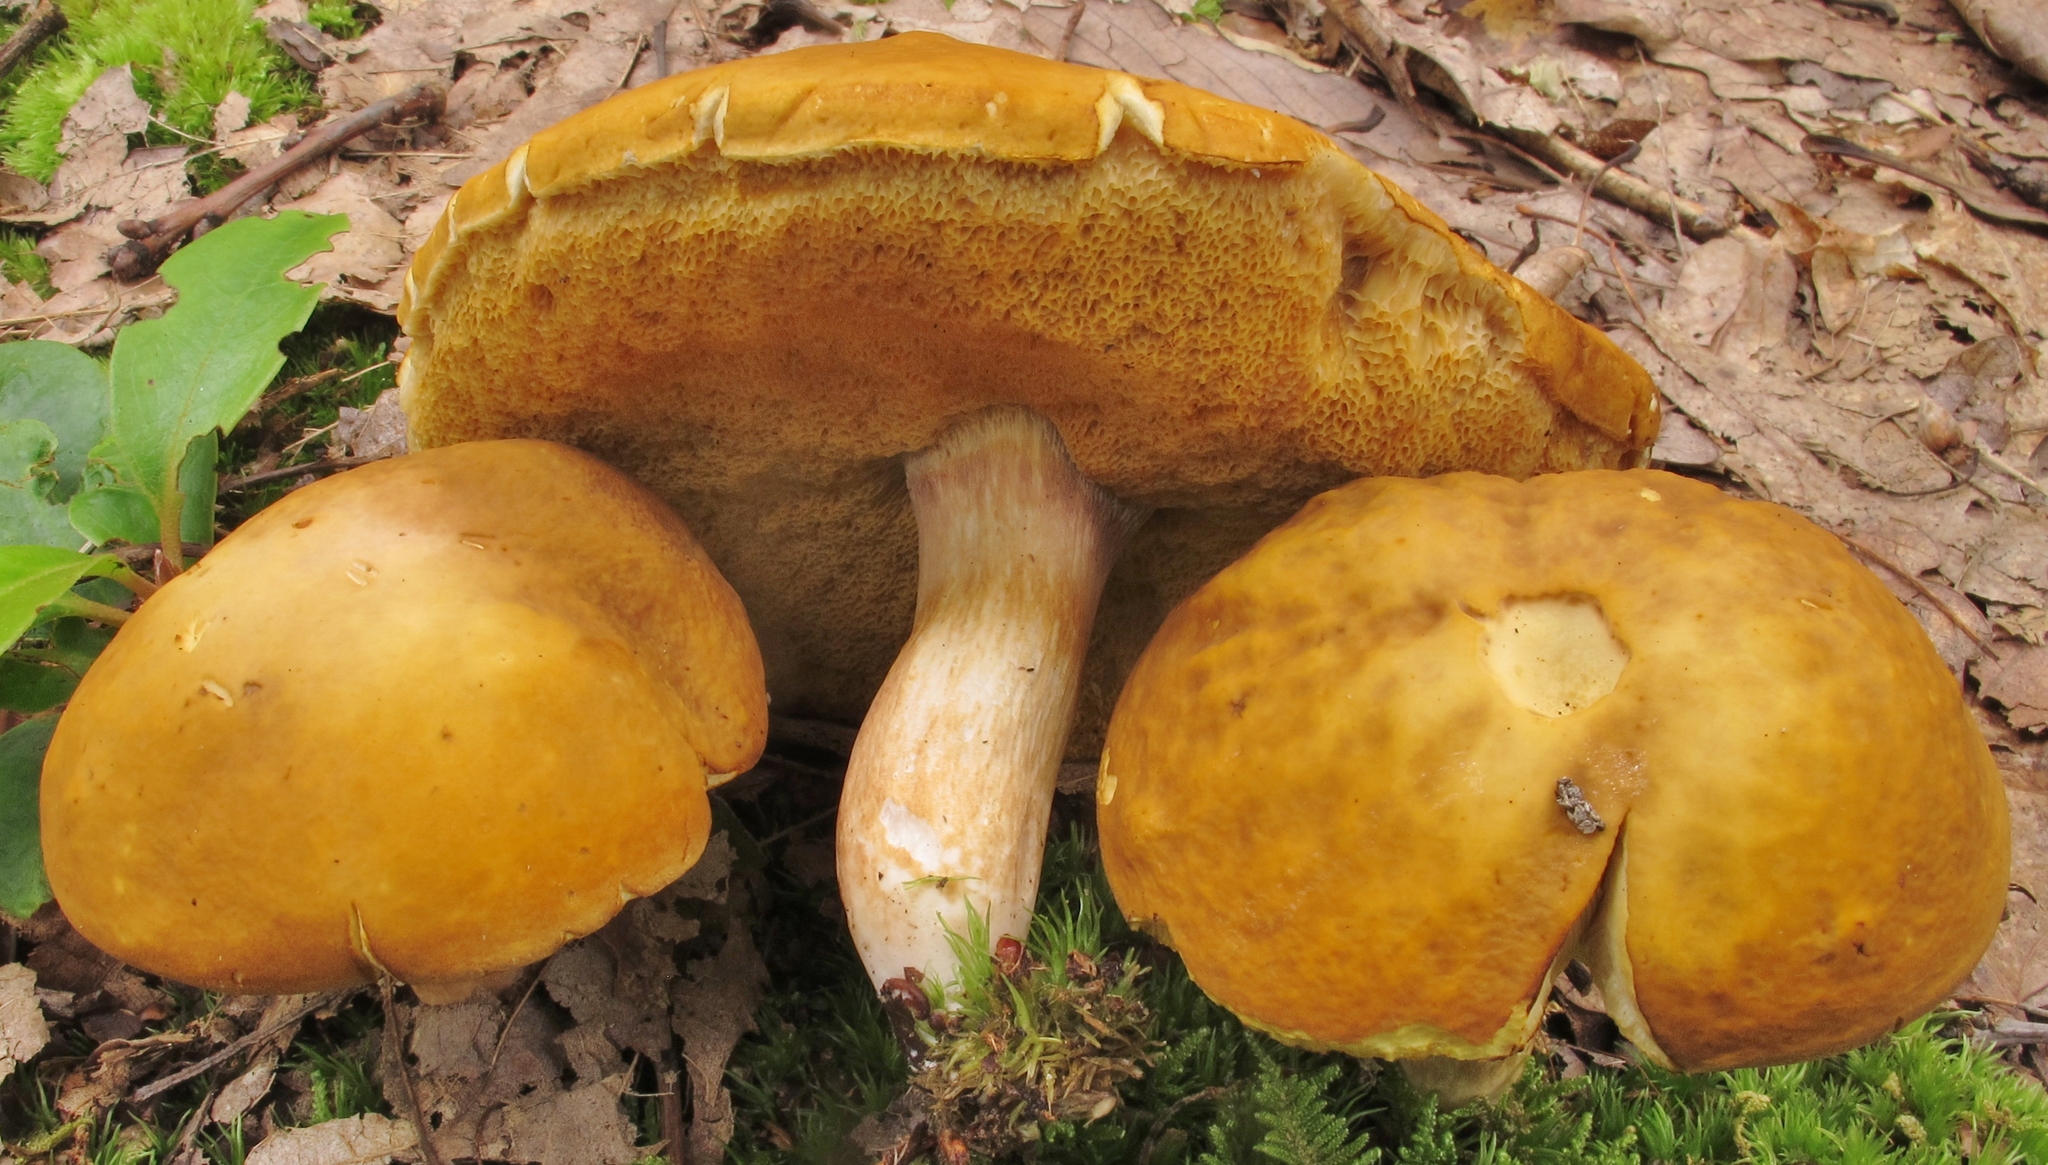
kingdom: Fungi
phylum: Basidiomycota
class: Agaricomycetes
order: Boletales
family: Boletaceae
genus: Xanthoconium
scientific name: Xanthoconium affine
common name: Spotted bolete
